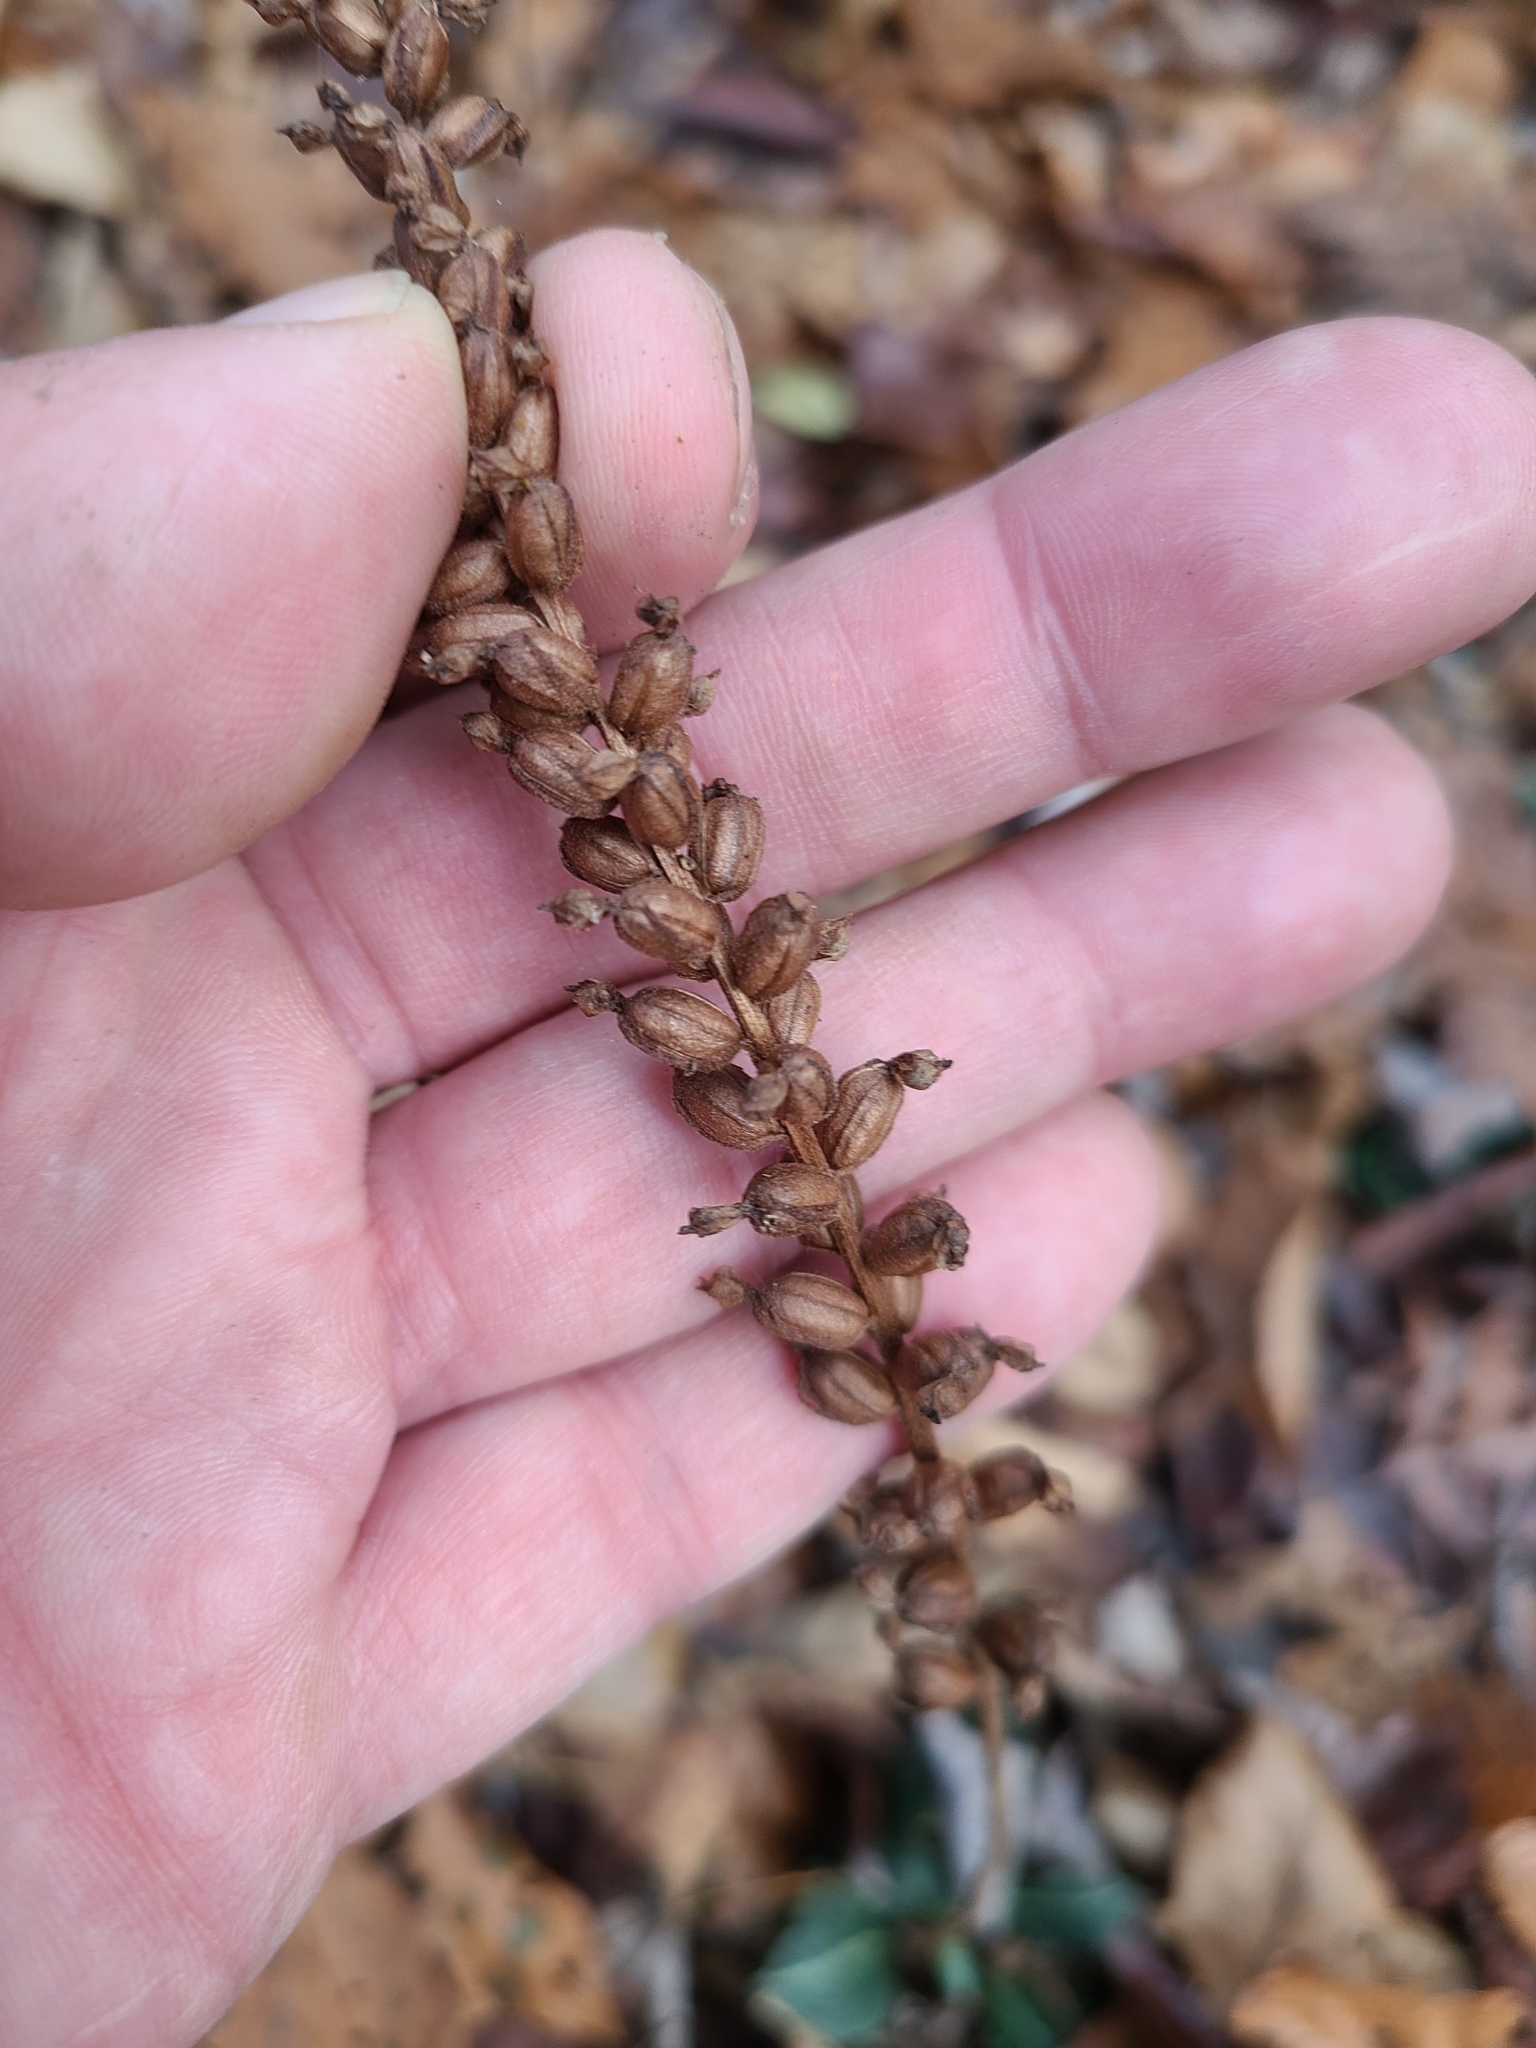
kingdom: Plantae
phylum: Tracheophyta
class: Liliopsida
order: Asparagales
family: Orchidaceae
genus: Goodyera
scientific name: Goodyera pubescens
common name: Downy rattlesnake-plantain
